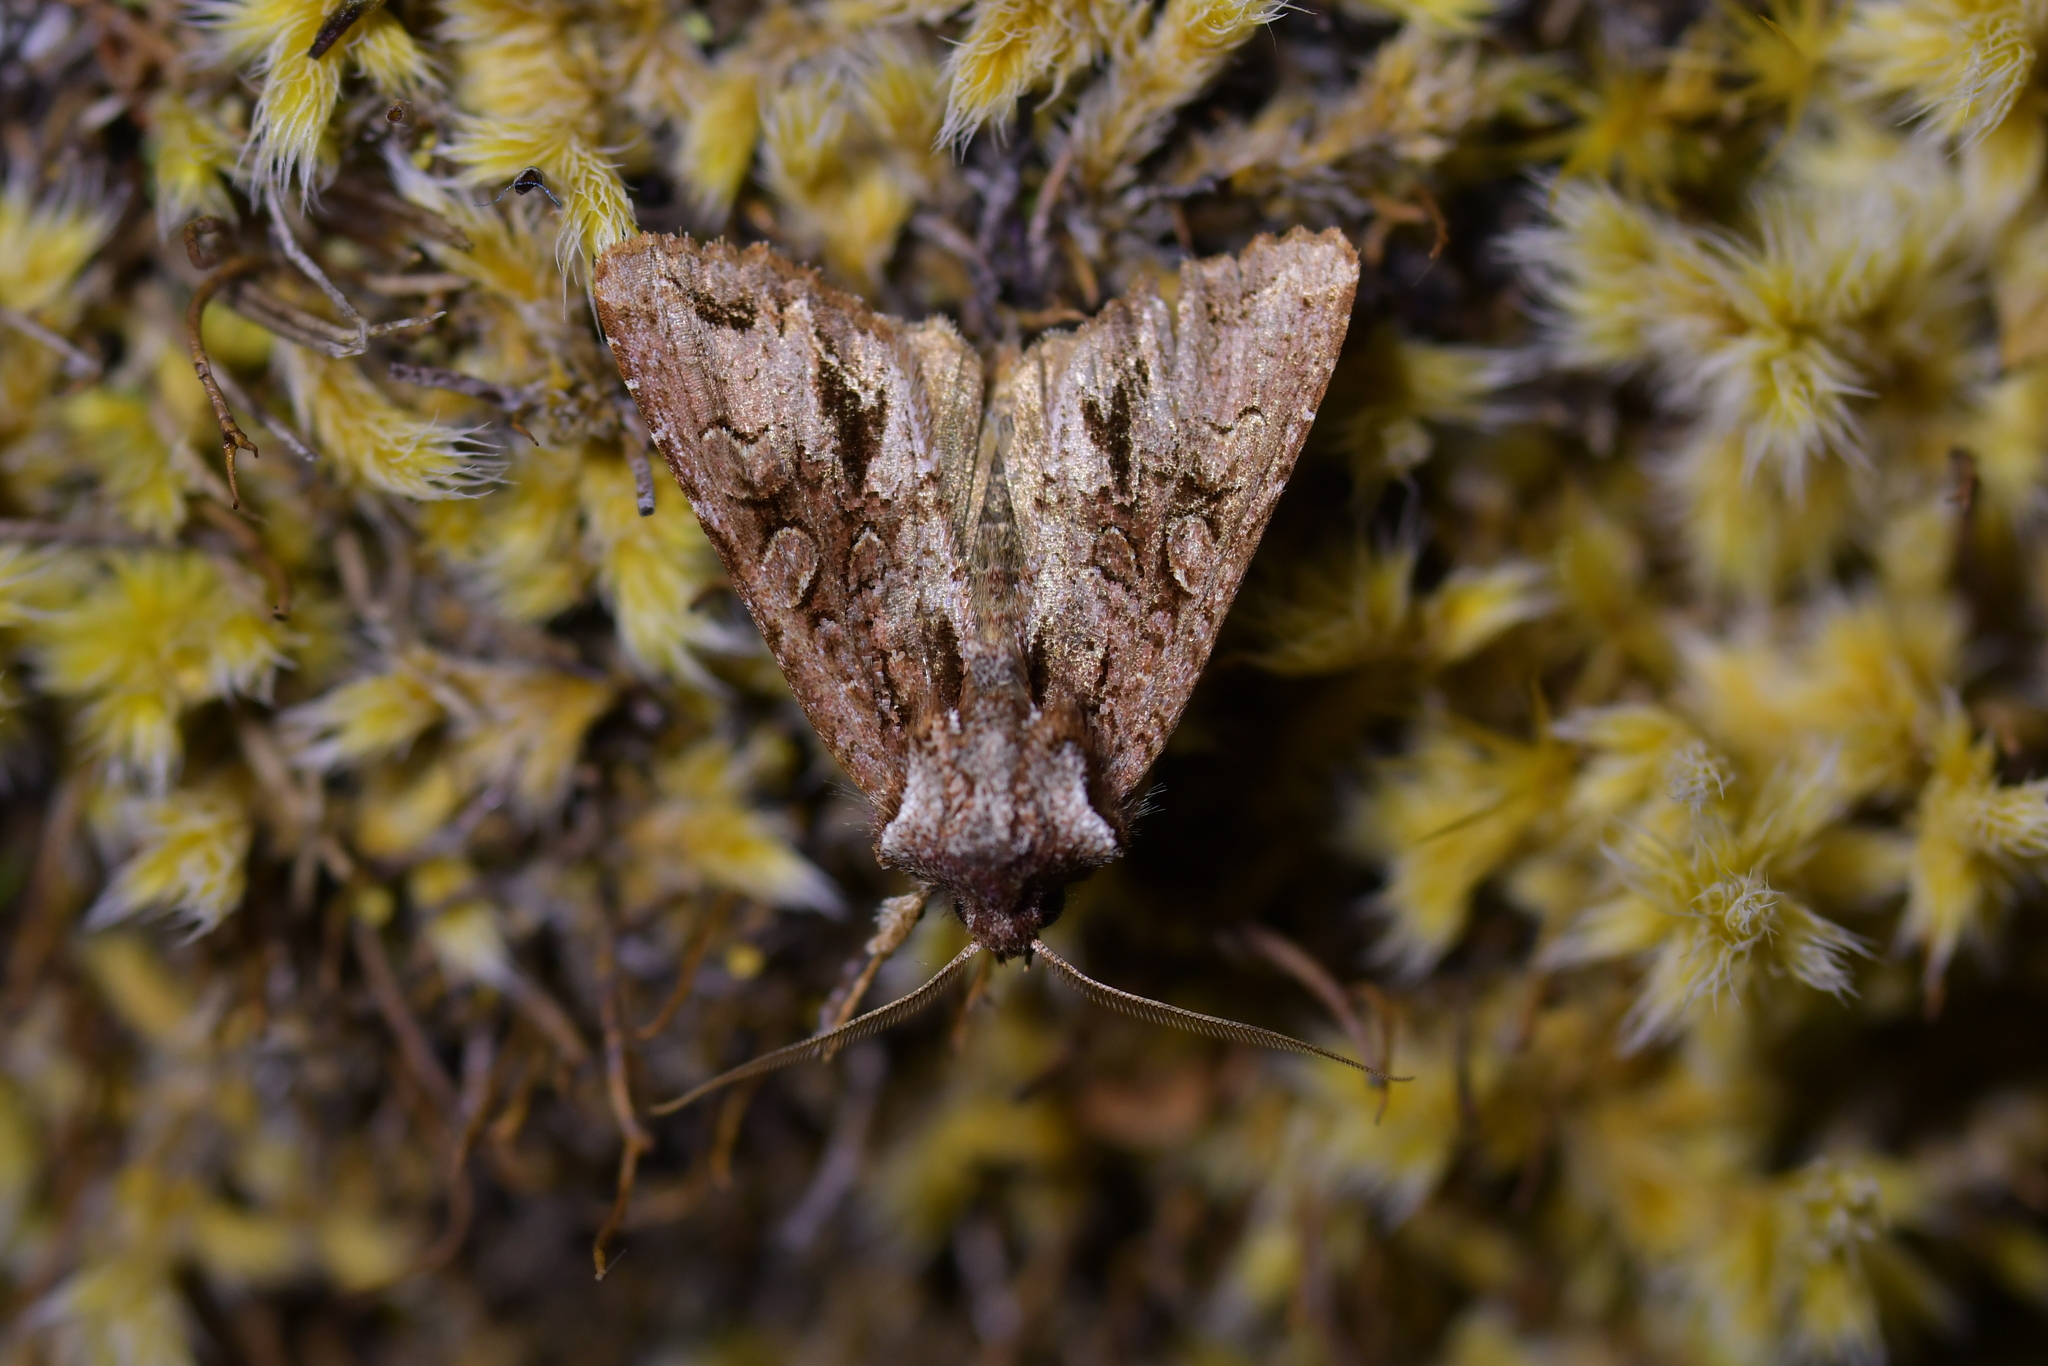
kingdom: Animalia
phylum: Arthropoda
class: Insecta
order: Lepidoptera
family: Noctuidae
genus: Ichneutica
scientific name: Ichneutica skelloni
